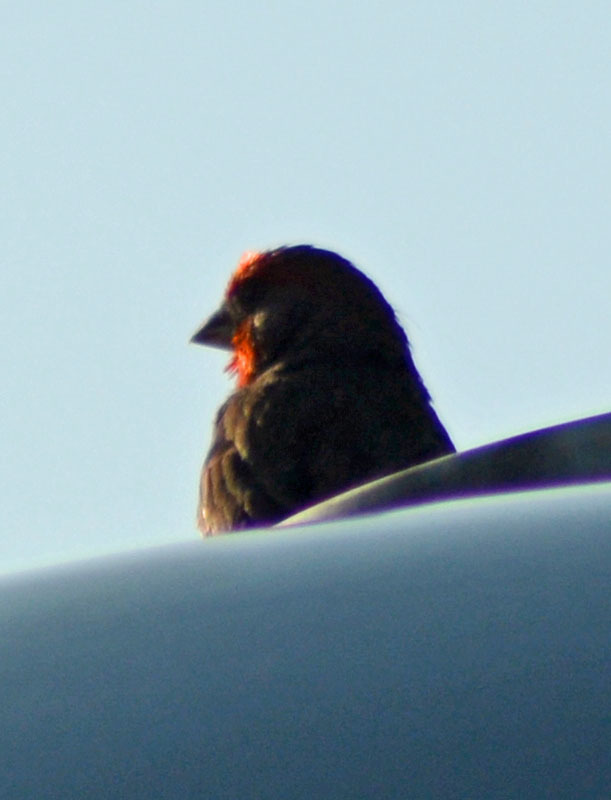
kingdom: Animalia
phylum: Chordata
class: Aves
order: Passeriformes
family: Fringillidae
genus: Haemorhous
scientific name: Haemorhous mexicanus
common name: House finch
